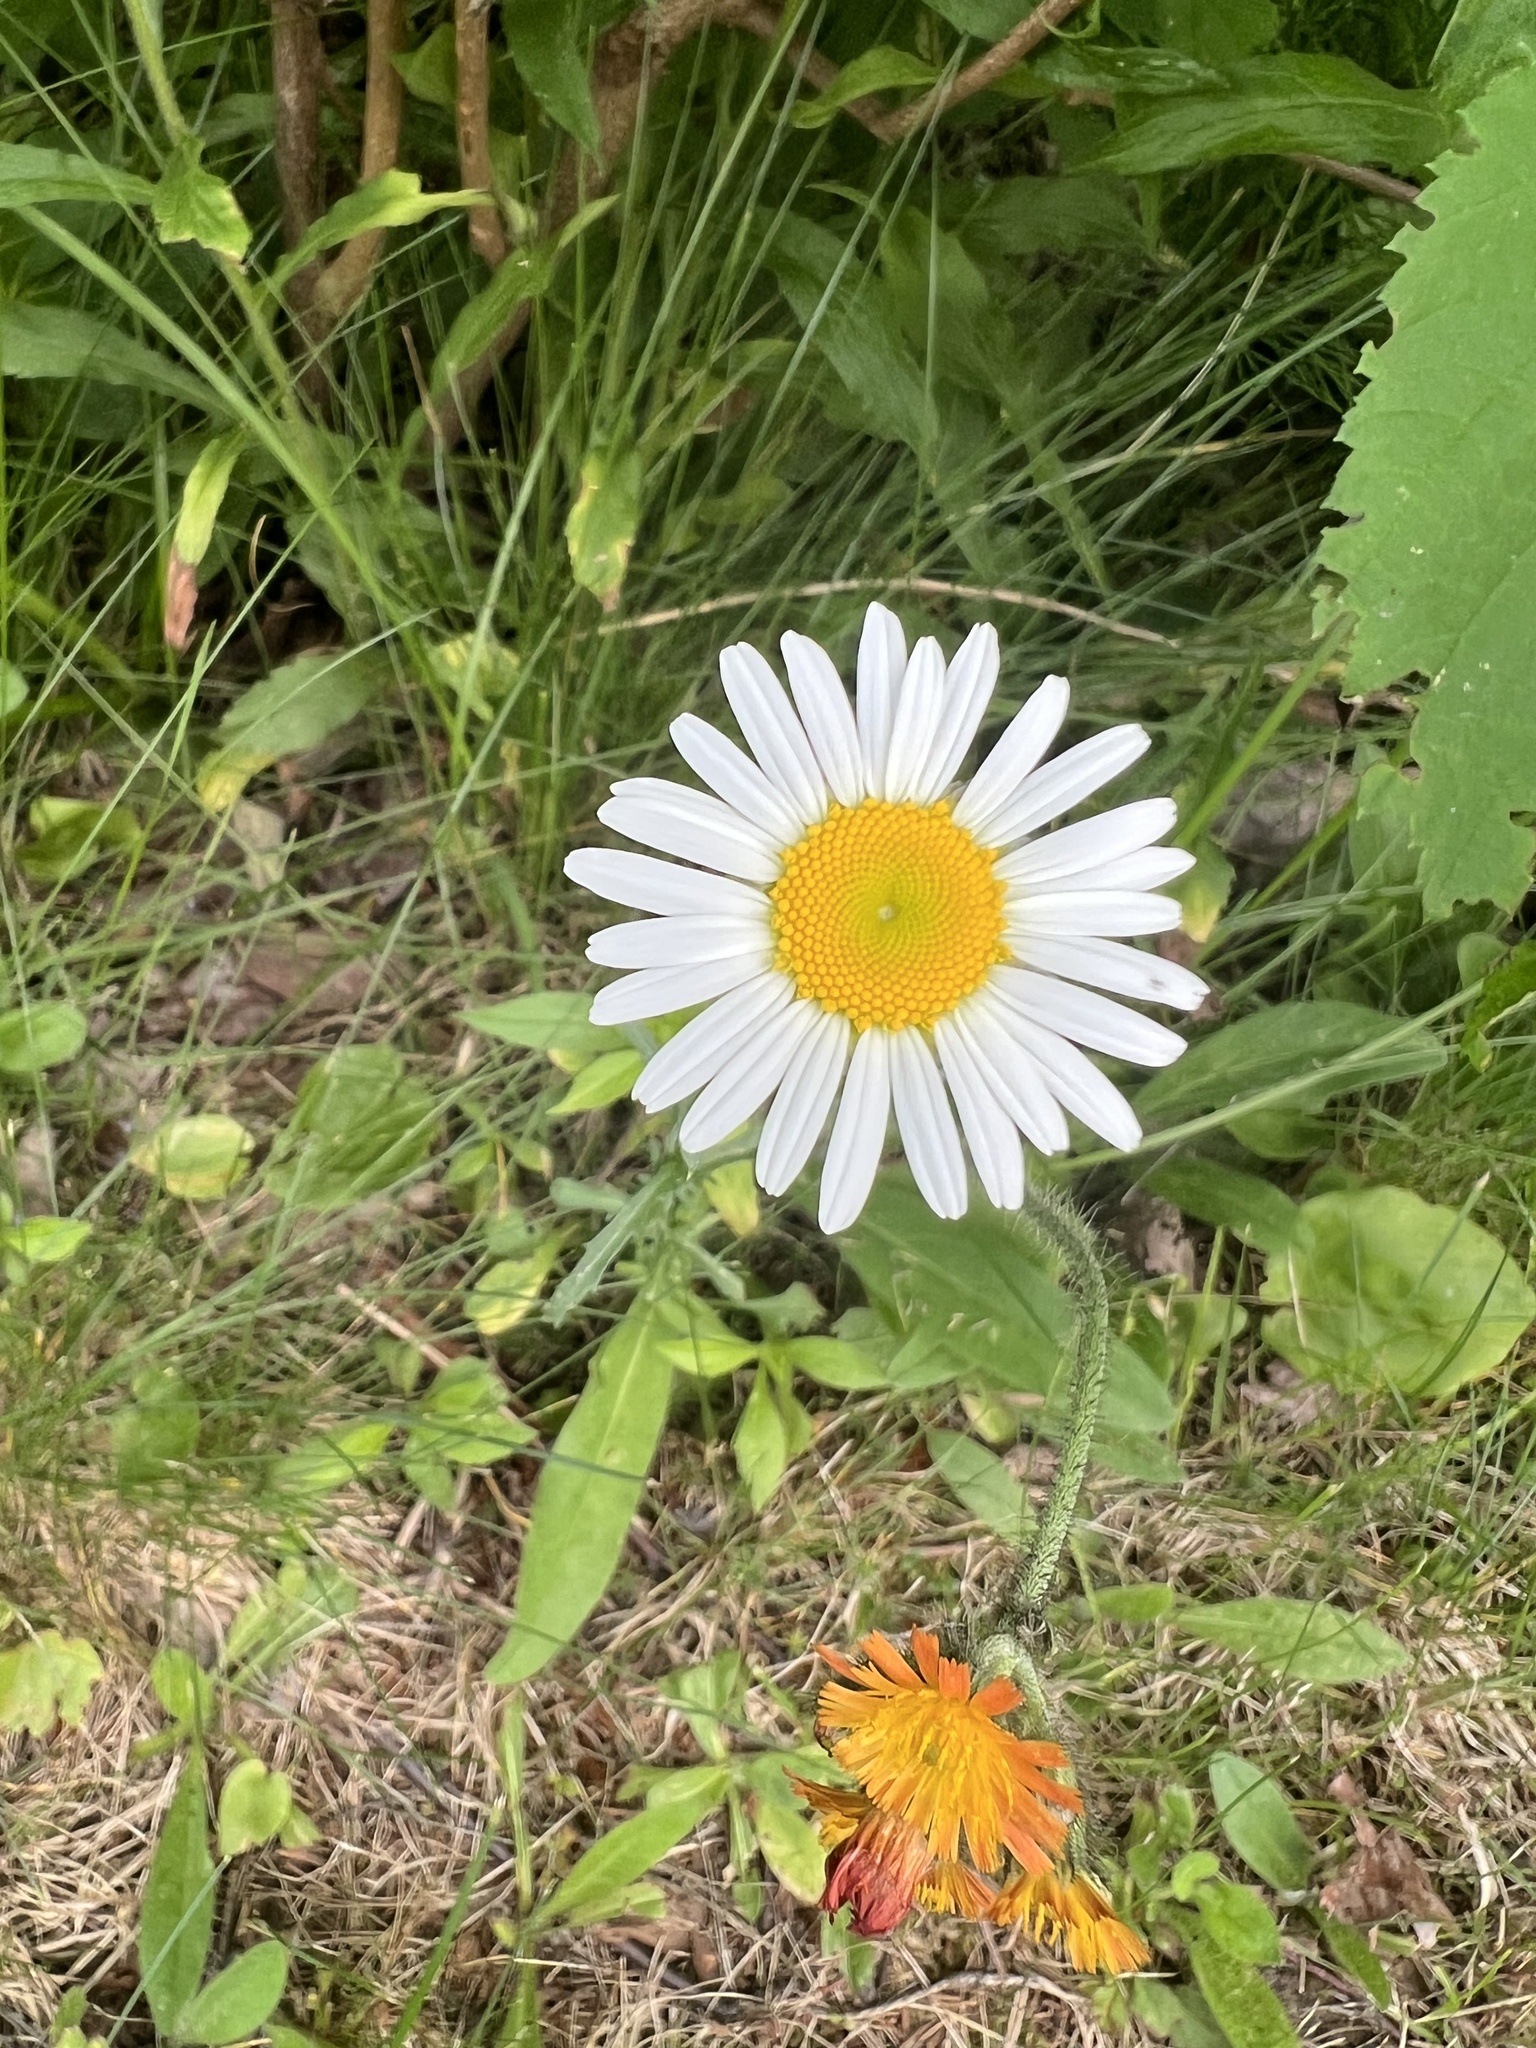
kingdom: Plantae
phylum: Tracheophyta
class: Magnoliopsida
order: Asterales
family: Asteraceae
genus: Leucanthemum
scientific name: Leucanthemum vulgare
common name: Oxeye daisy
